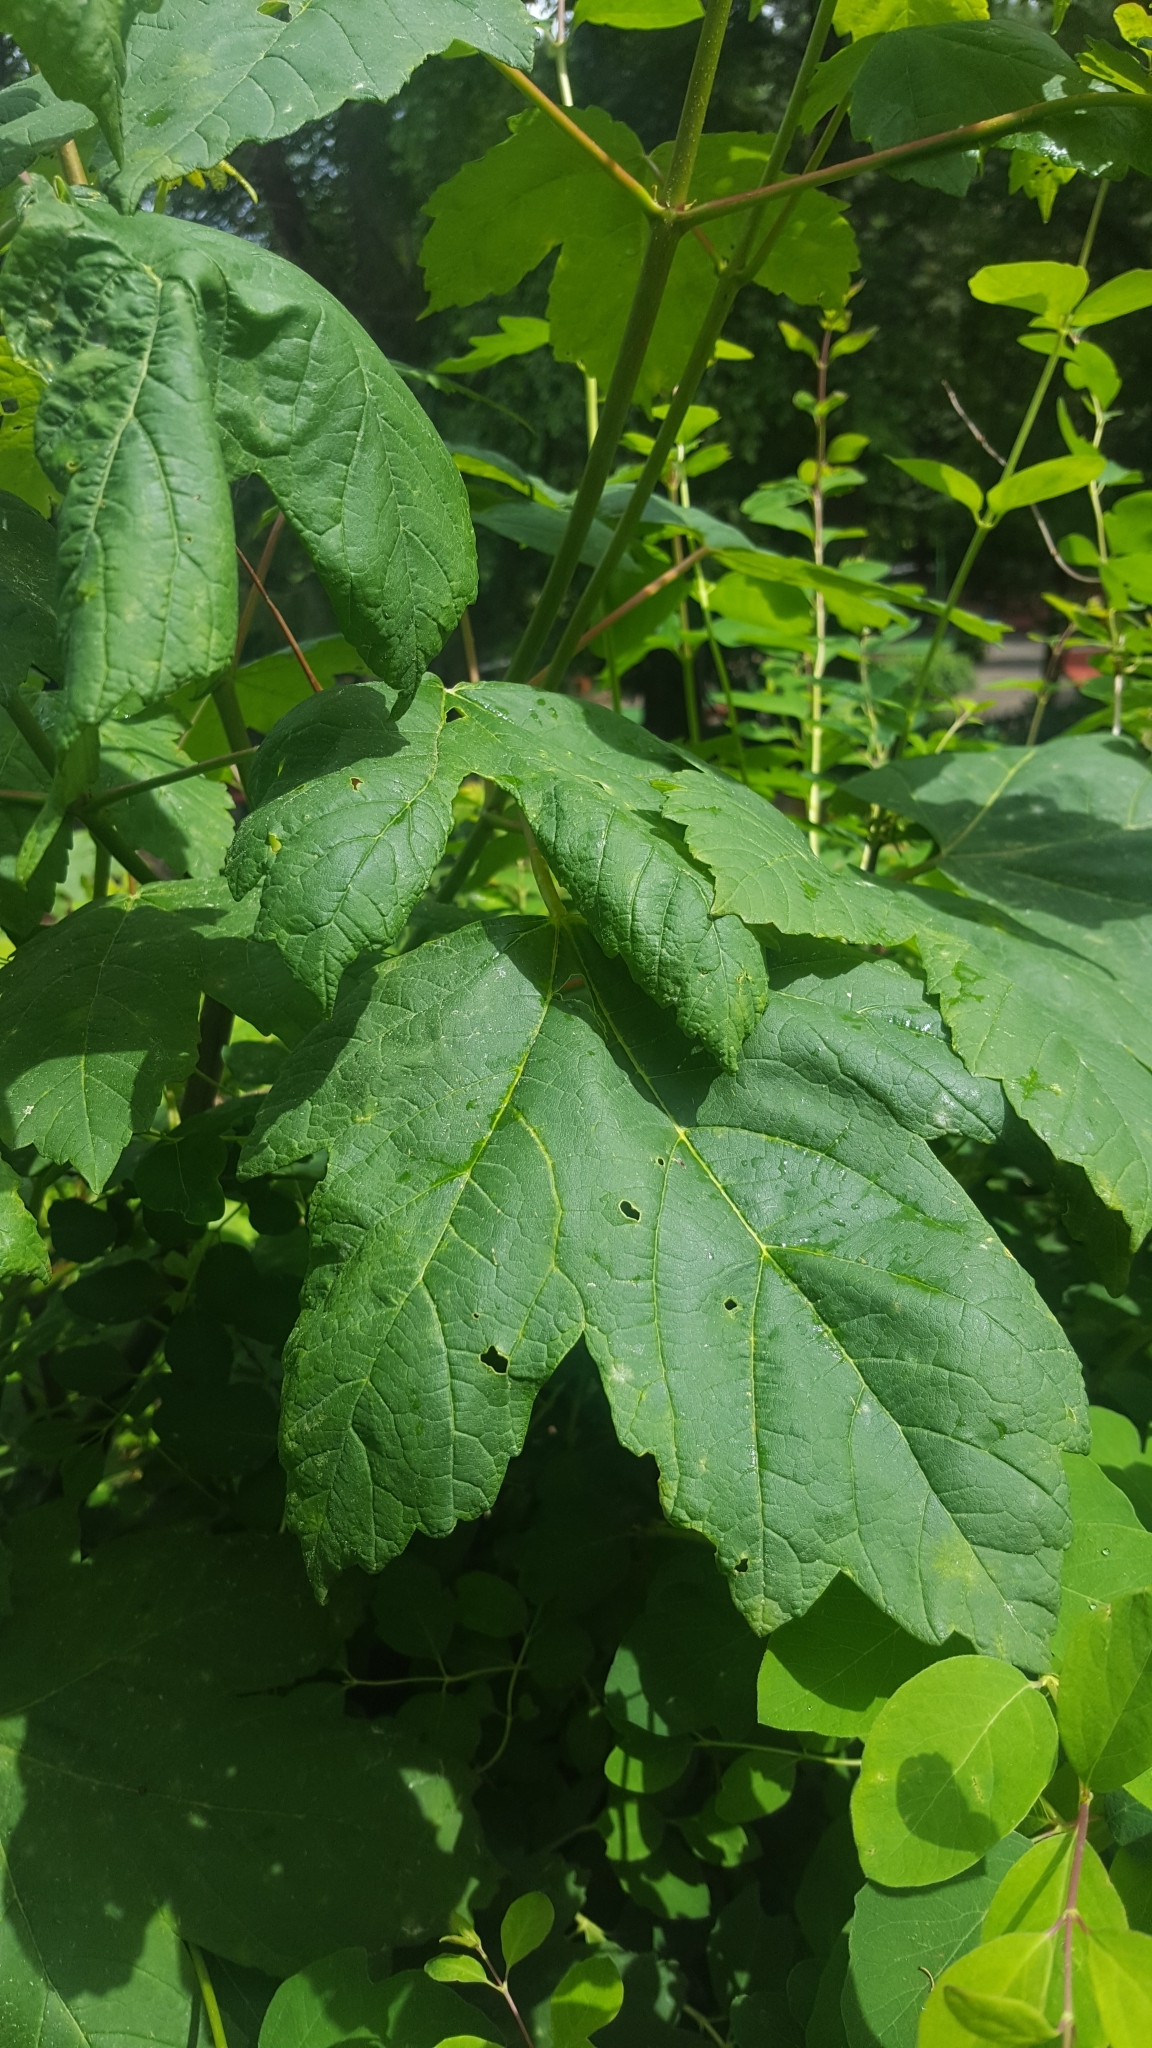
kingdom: Plantae
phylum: Tracheophyta
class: Magnoliopsida
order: Sapindales
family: Sapindaceae
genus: Acer
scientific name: Acer pseudoplatanus
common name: Sycamore
